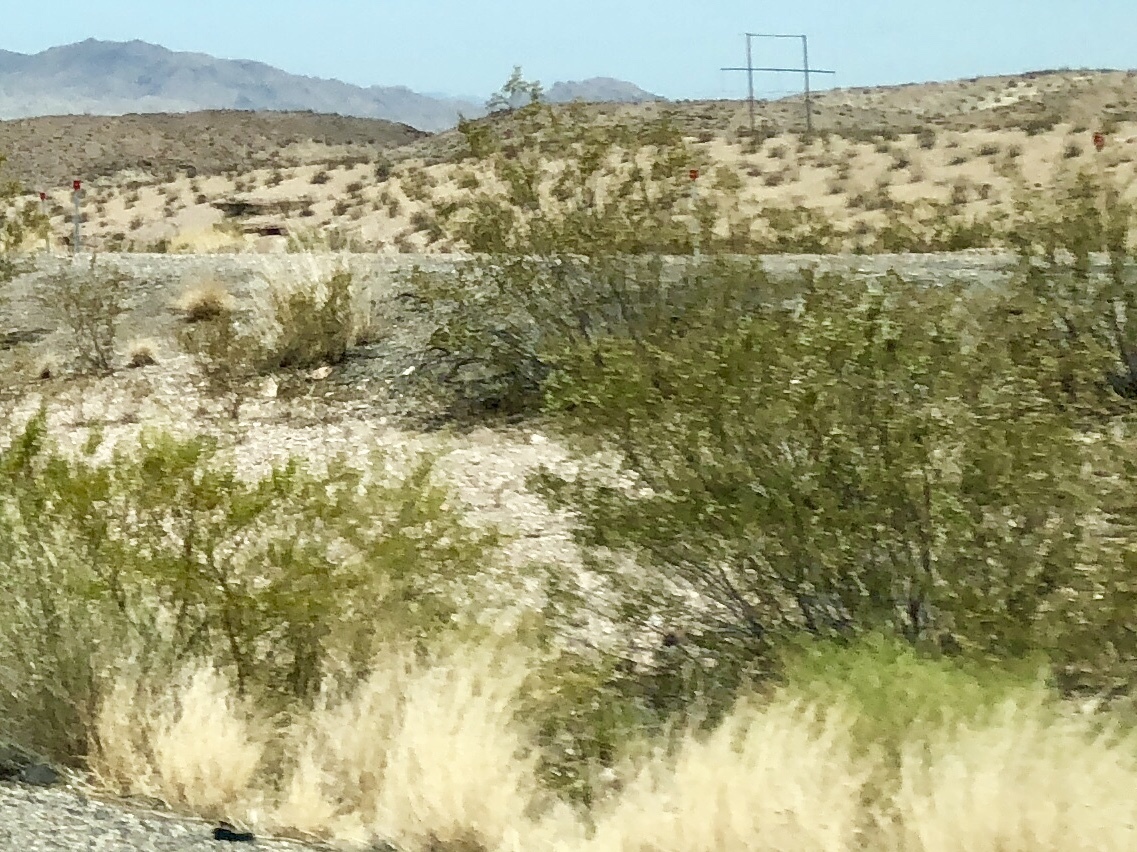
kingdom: Plantae
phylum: Tracheophyta
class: Magnoliopsida
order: Zygophyllales
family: Zygophyllaceae
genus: Larrea
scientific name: Larrea tridentata
